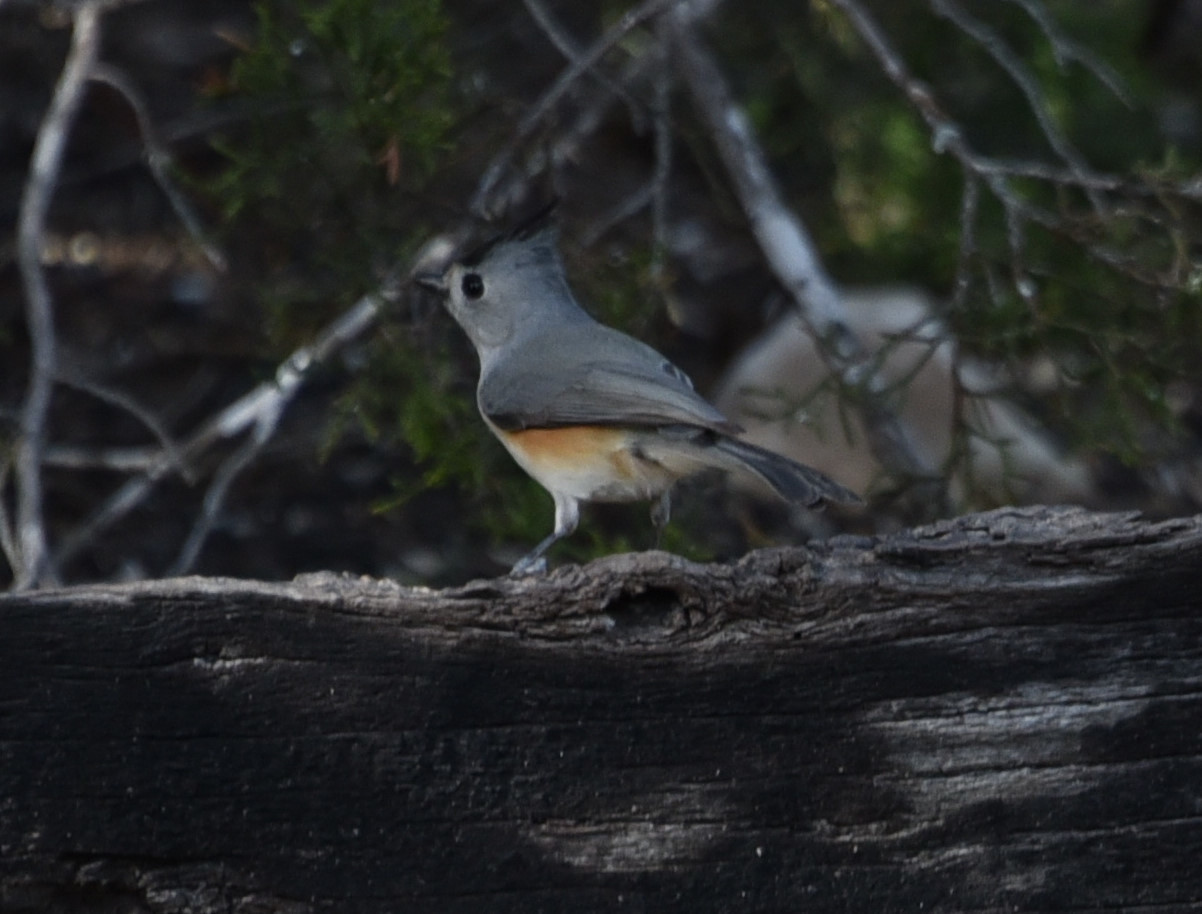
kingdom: Animalia
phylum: Chordata
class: Aves
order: Passeriformes
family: Paridae
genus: Baeolophus
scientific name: Baeolophus atricristatus
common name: Black-crested titmouse
